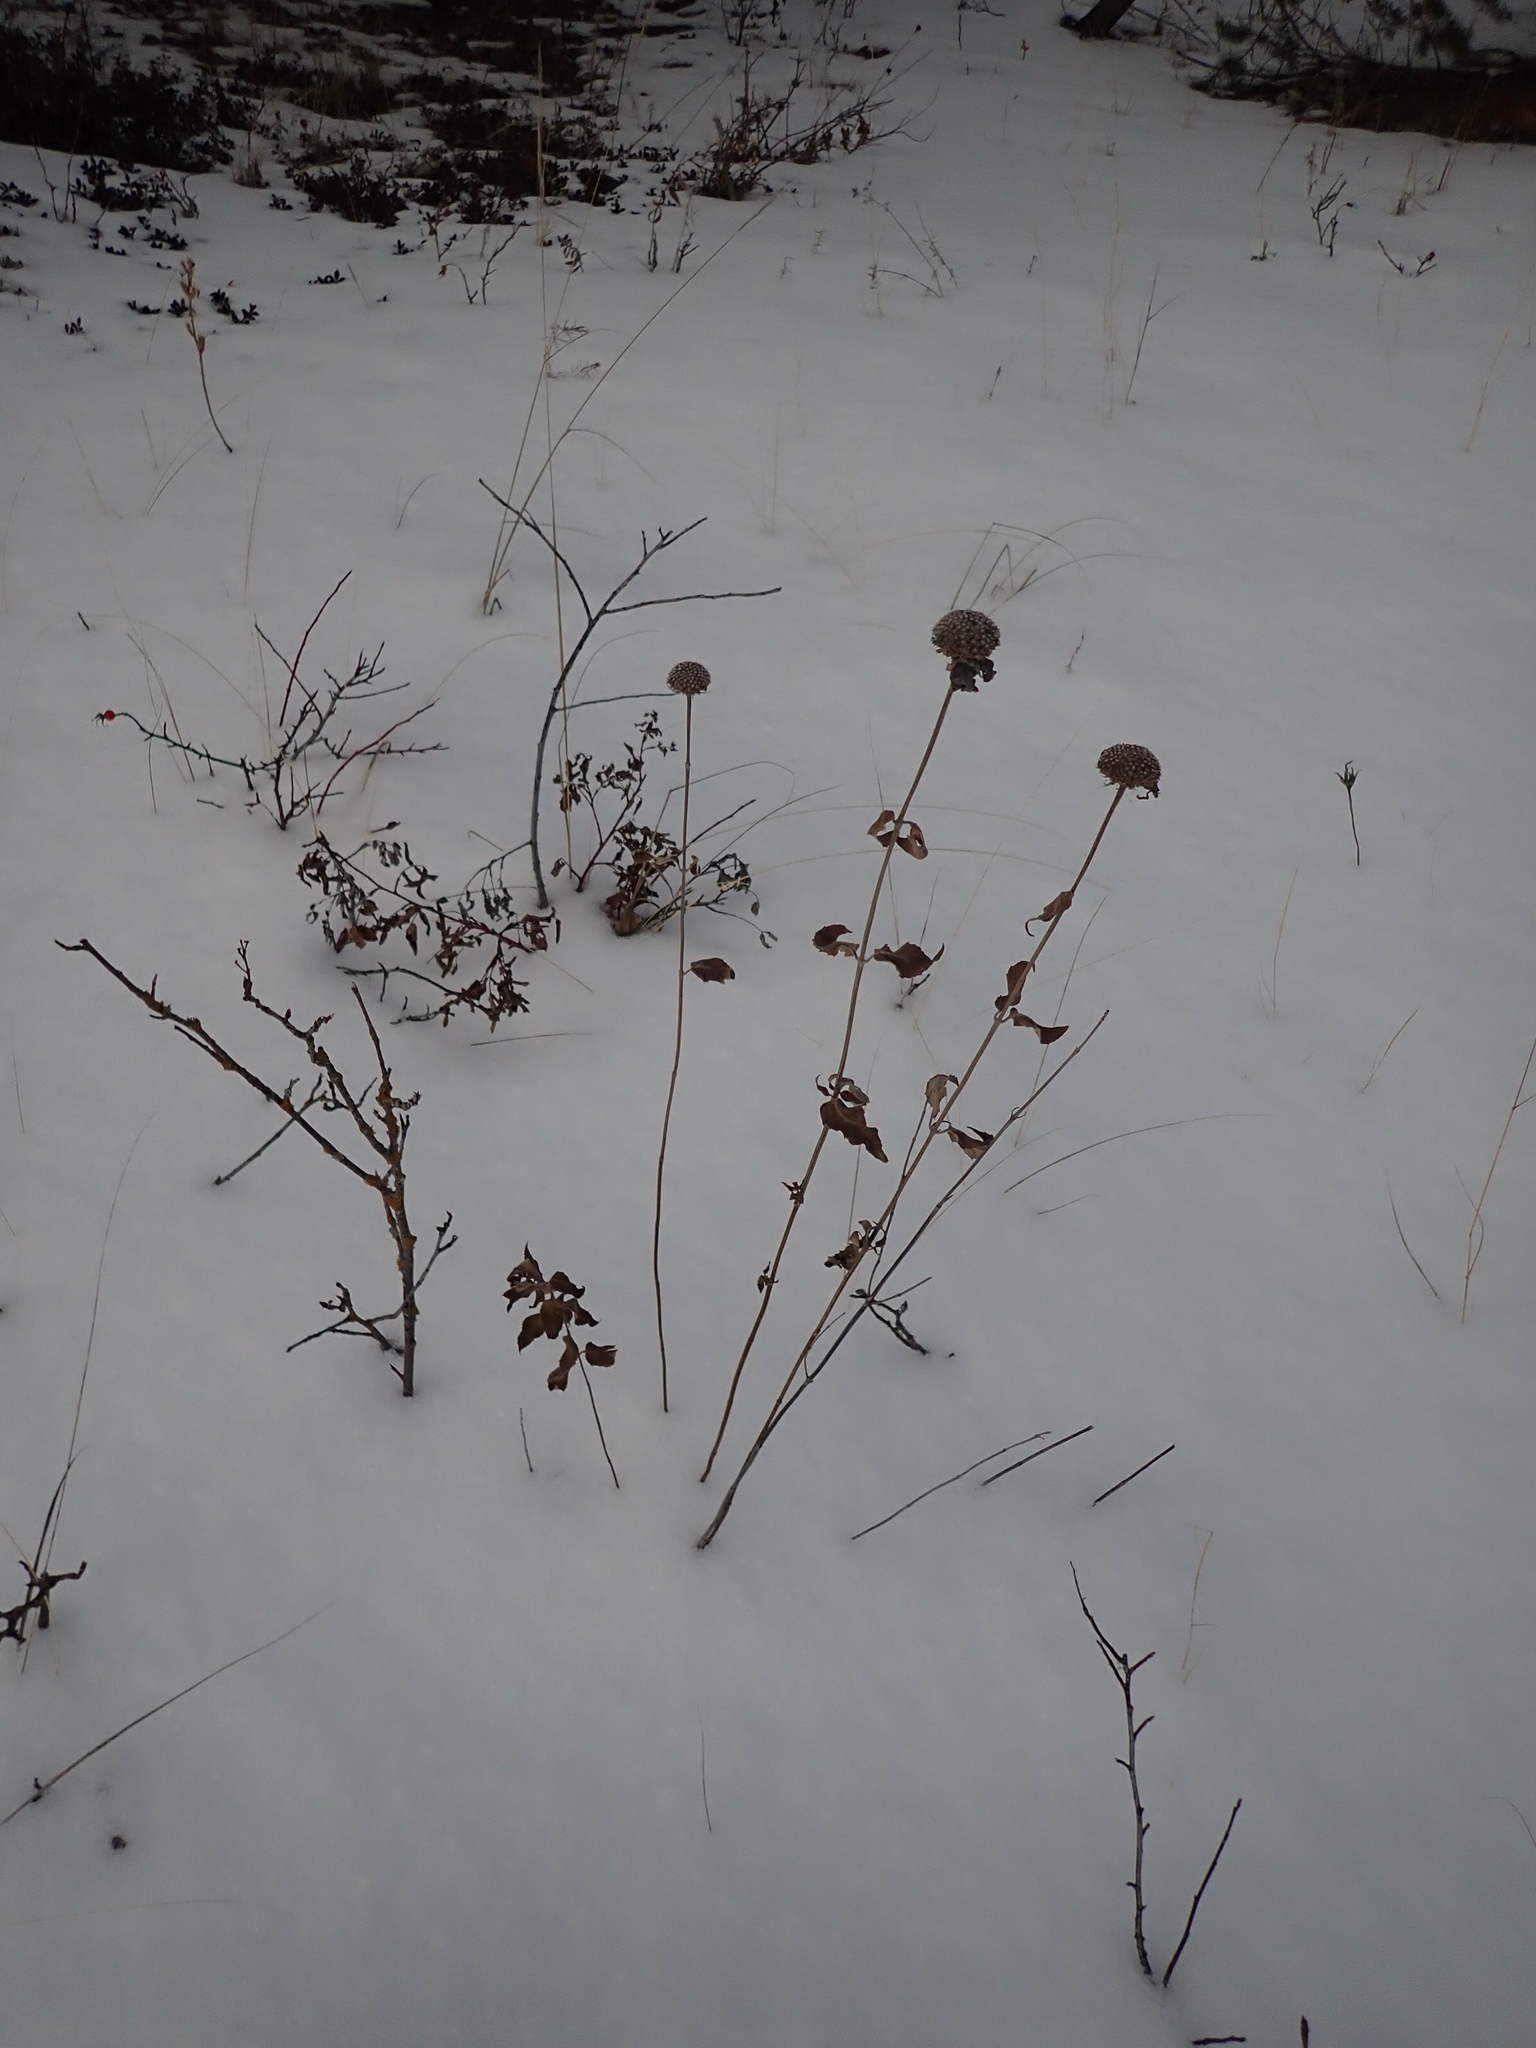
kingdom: Plantae
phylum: Tracheophyta
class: Magnoliopsida
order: Lamiales
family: Lamiaceae
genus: Monarda
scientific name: Monarda fistulosa
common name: Purple beebalm
